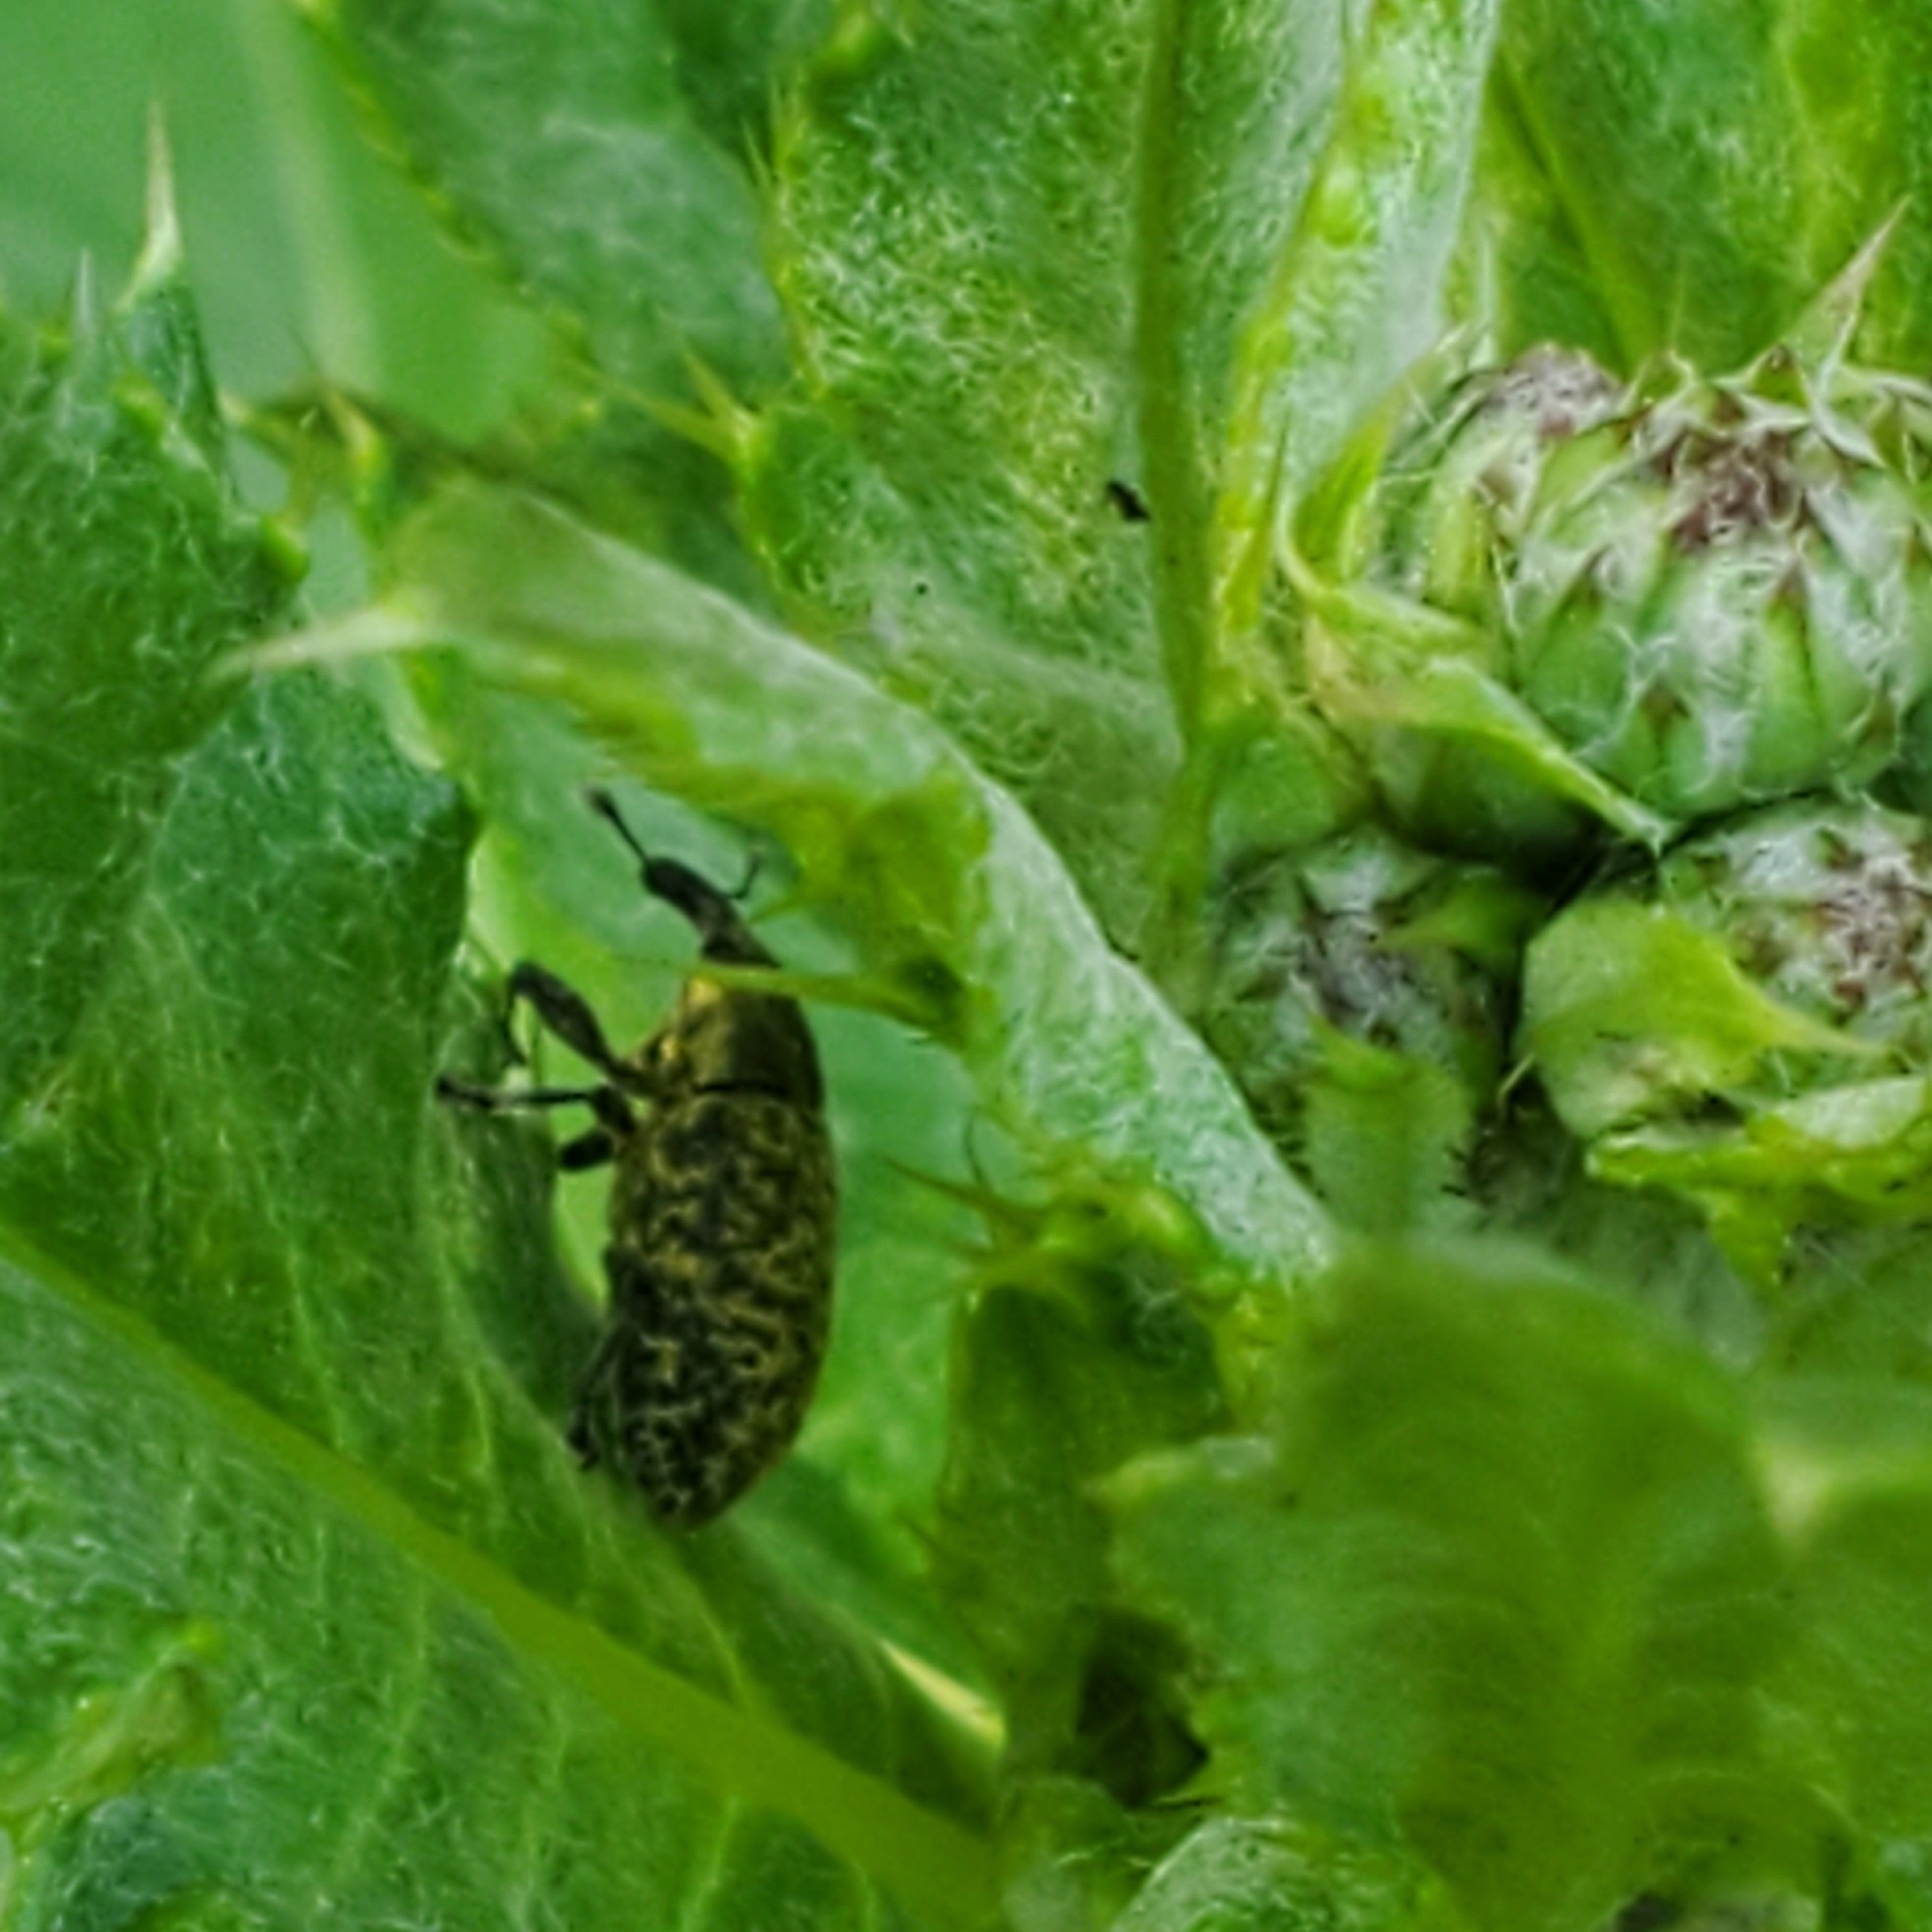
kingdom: Animalia
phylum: Arthropoda
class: Insecta
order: Coleoptera
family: Curculionidae
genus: Larinus
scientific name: Larinus carlinae
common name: Weevil
